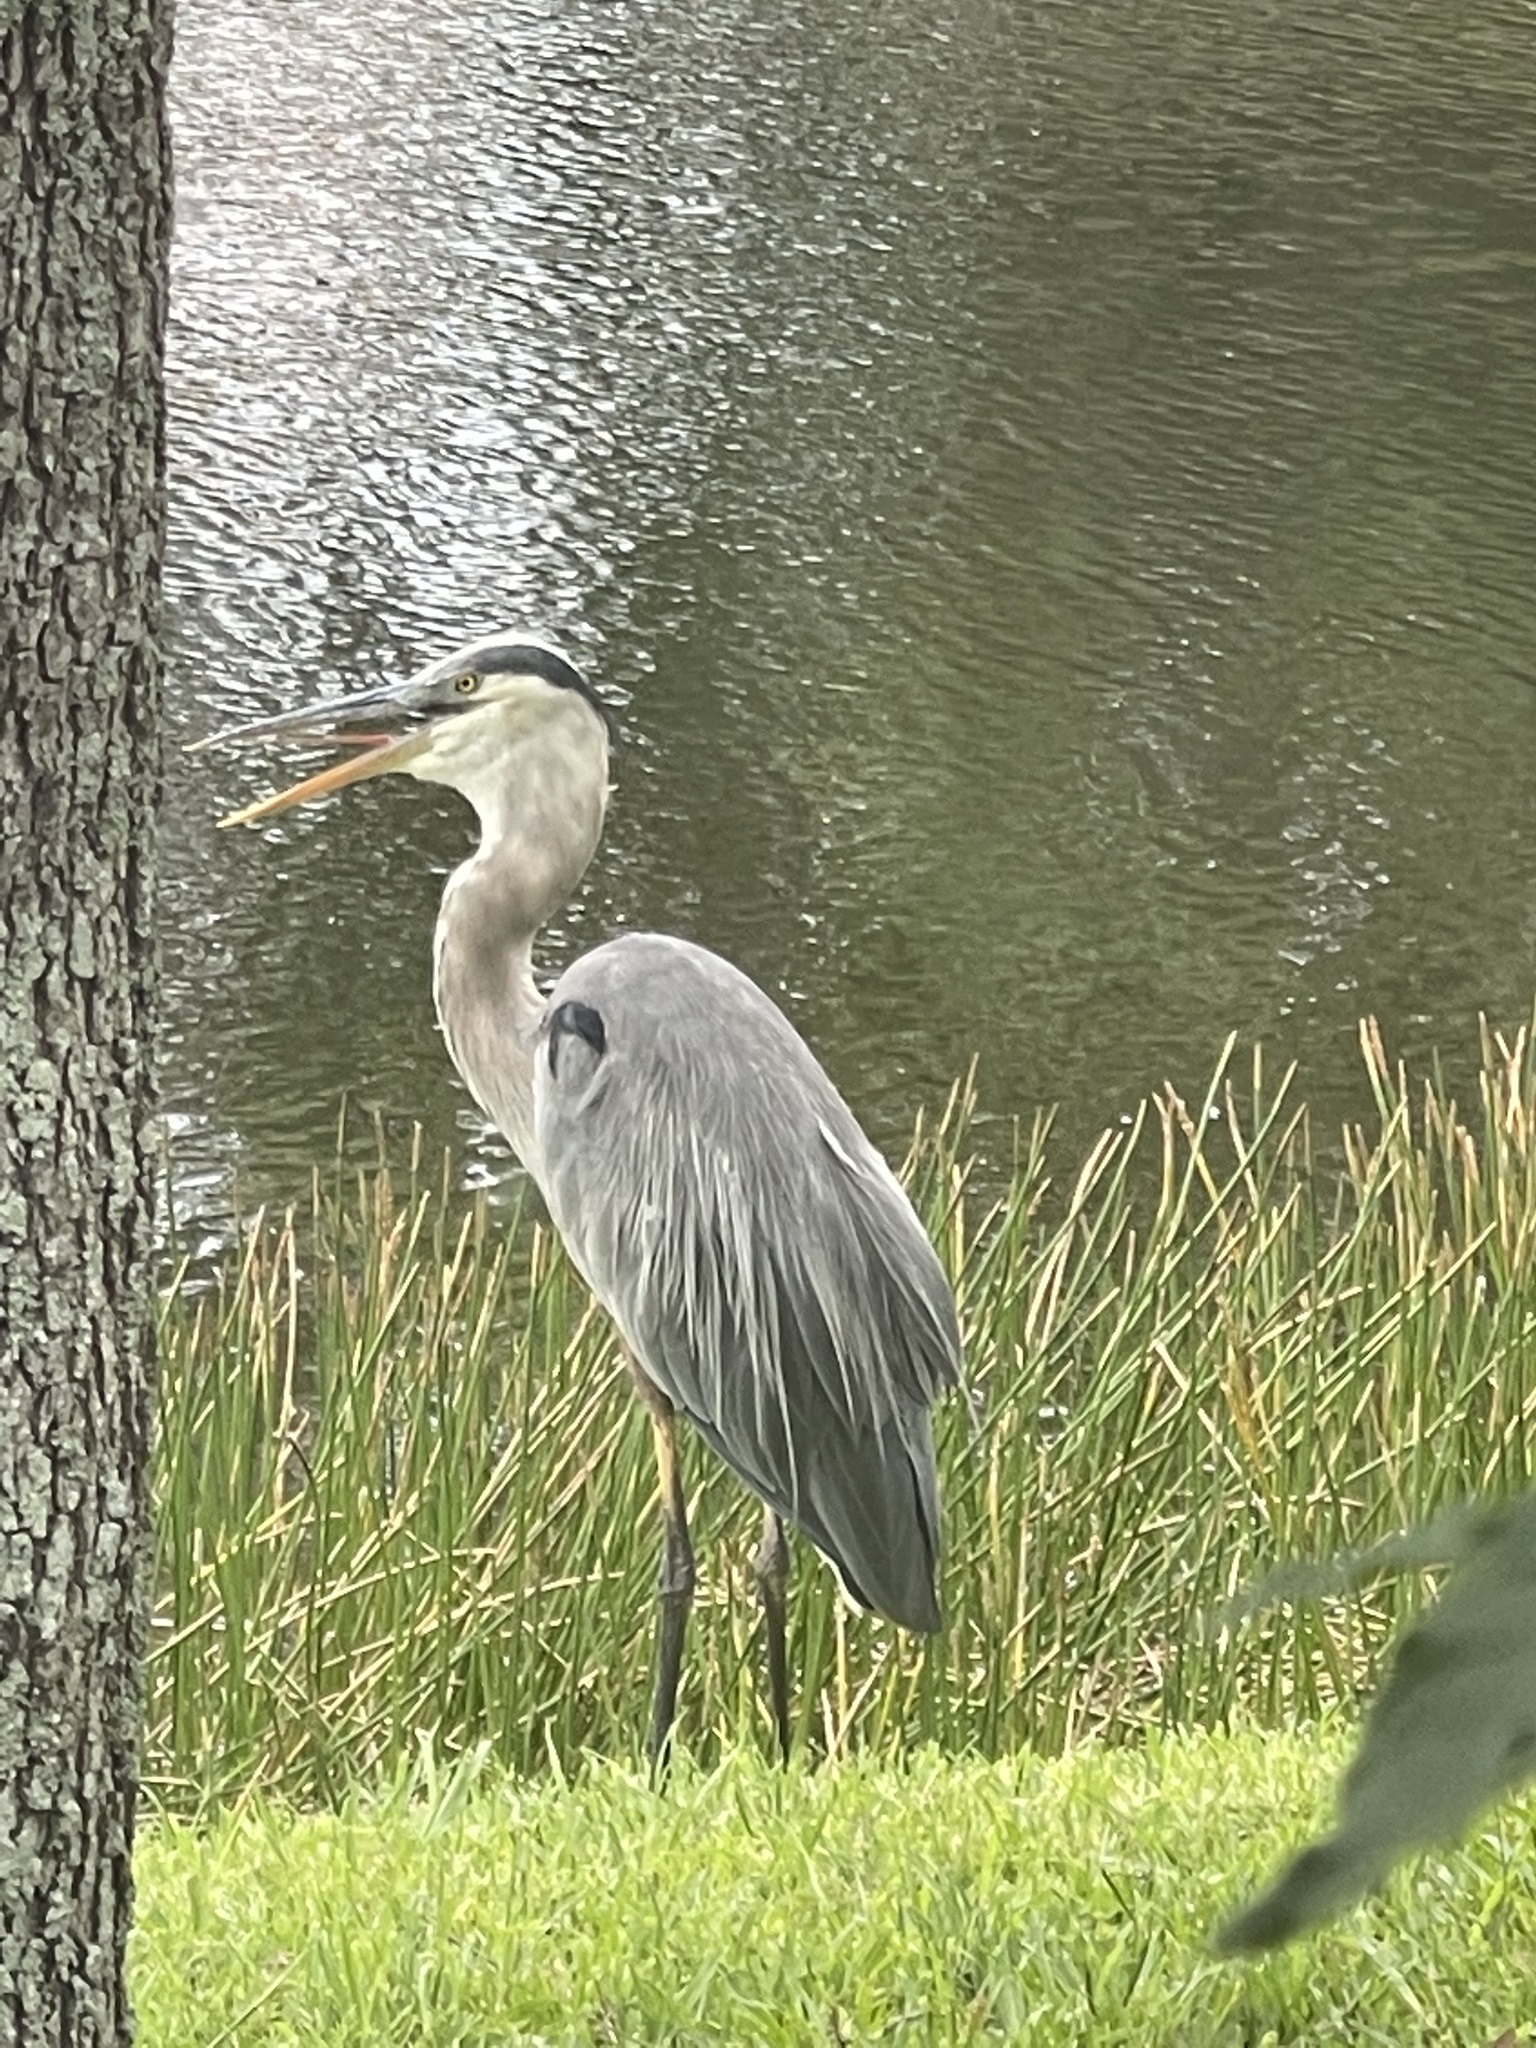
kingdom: Animalia
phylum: Chordata
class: Aves
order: Pelecaniformes
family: Ardeidae
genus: Ardea
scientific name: Ardea herodias
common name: Great blue heron
